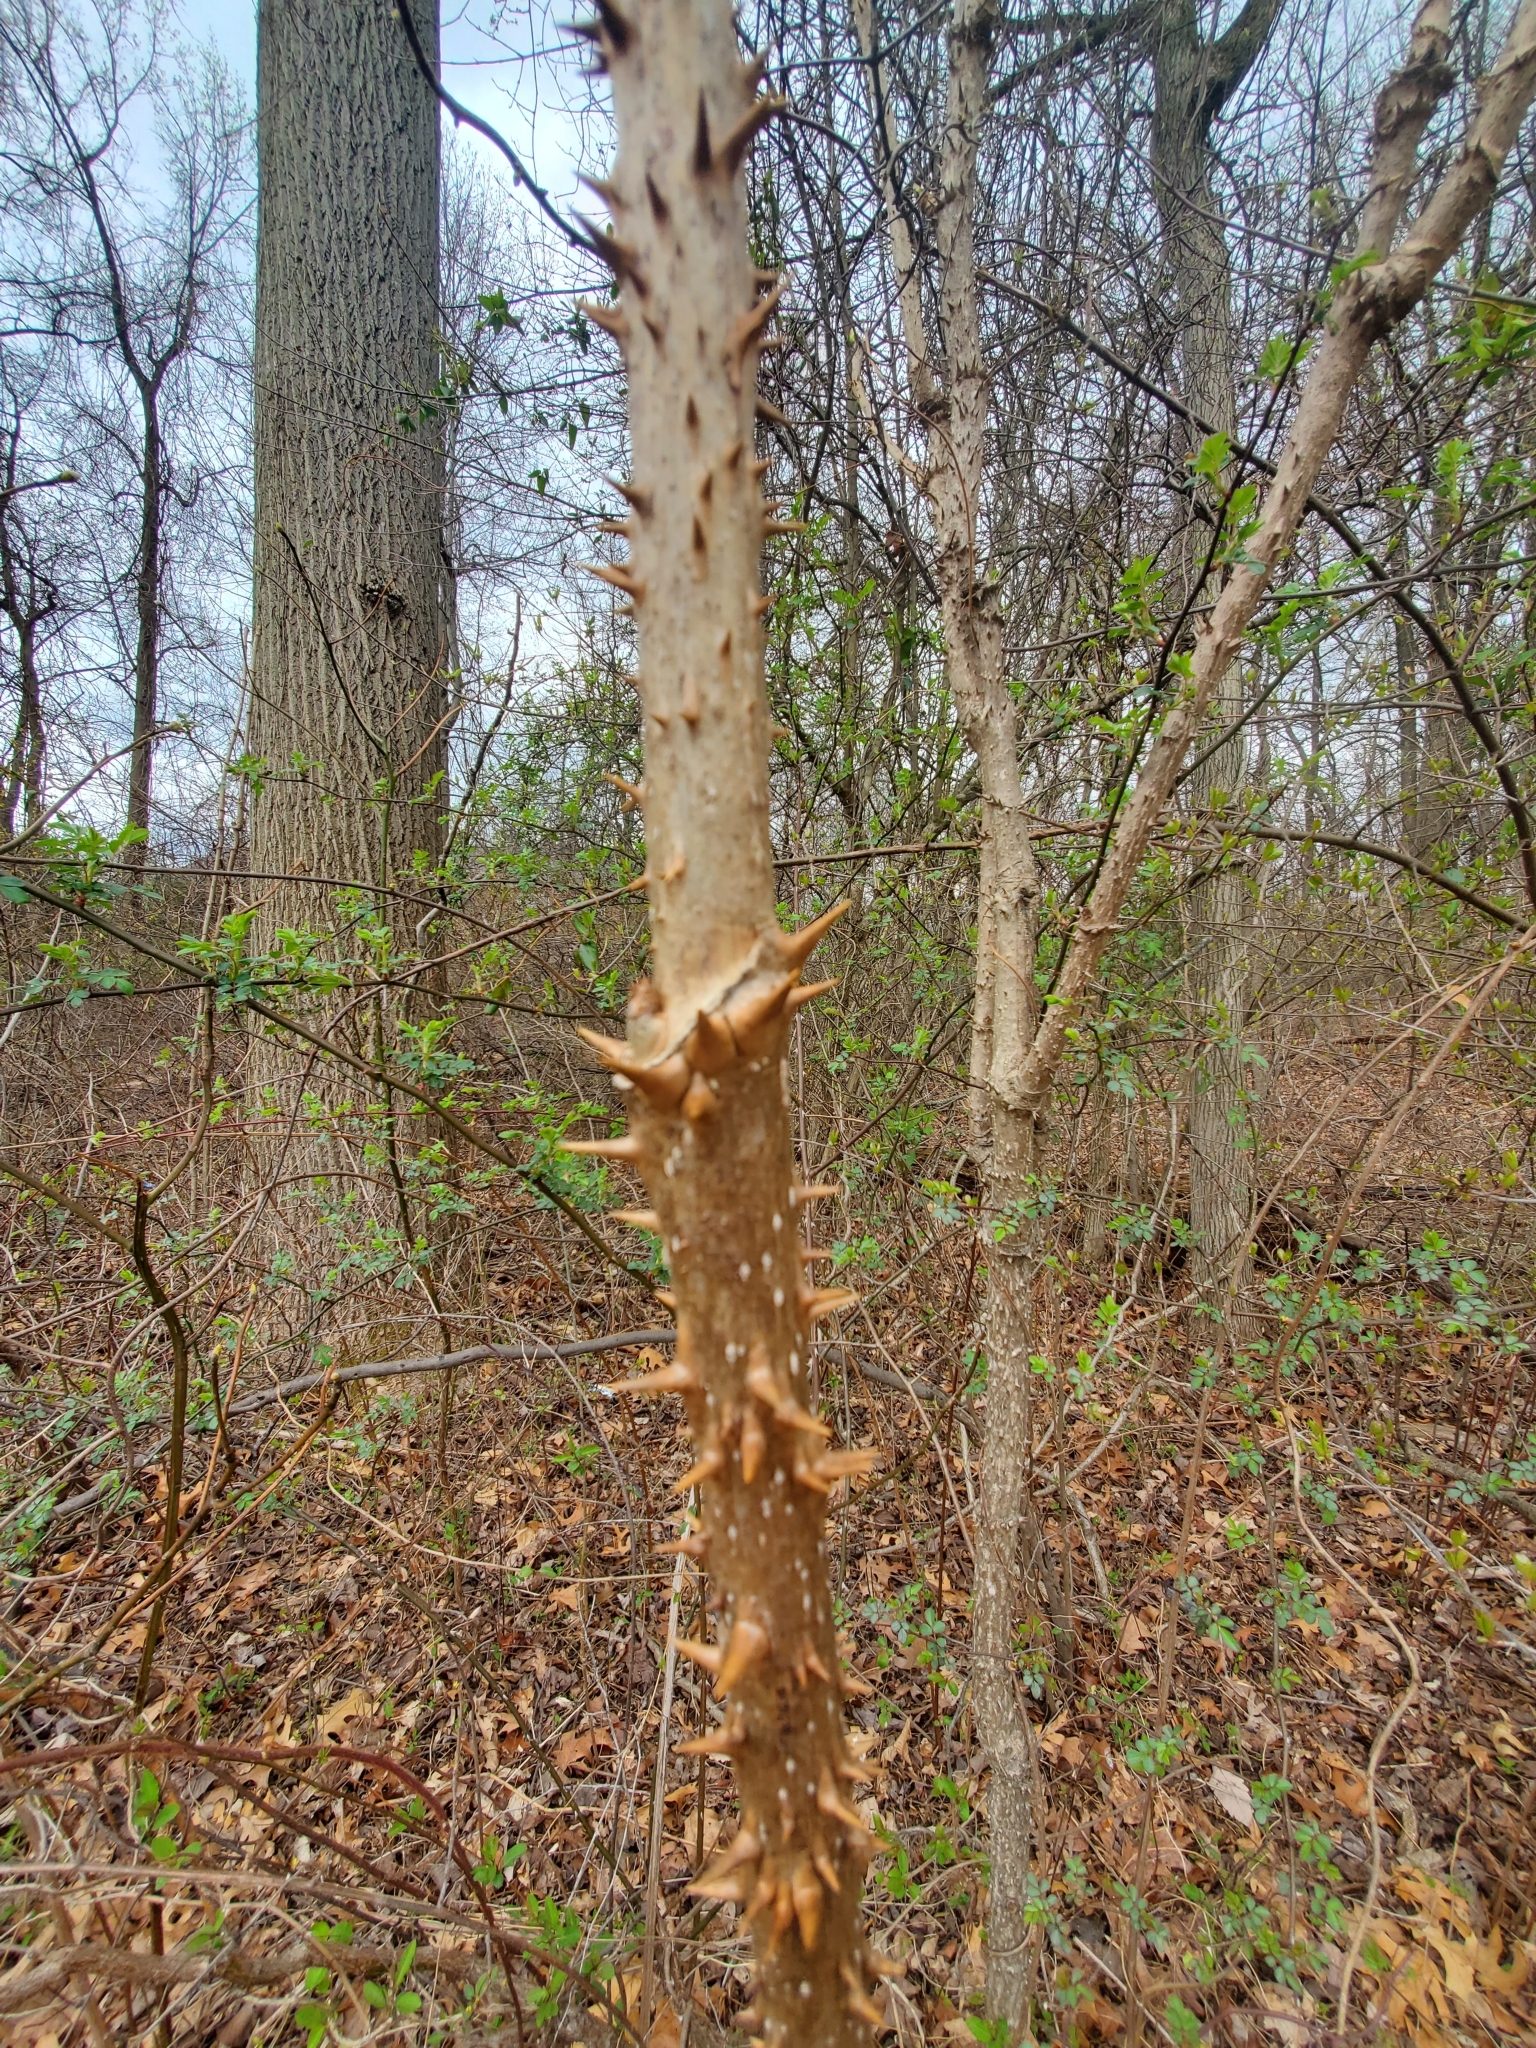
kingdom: Plantae
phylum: Tracheophyta
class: Magnoliopsida
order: Apiales
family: Araliaceae
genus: Aralia
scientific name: Aralia spinosa
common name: Hercules'-club
